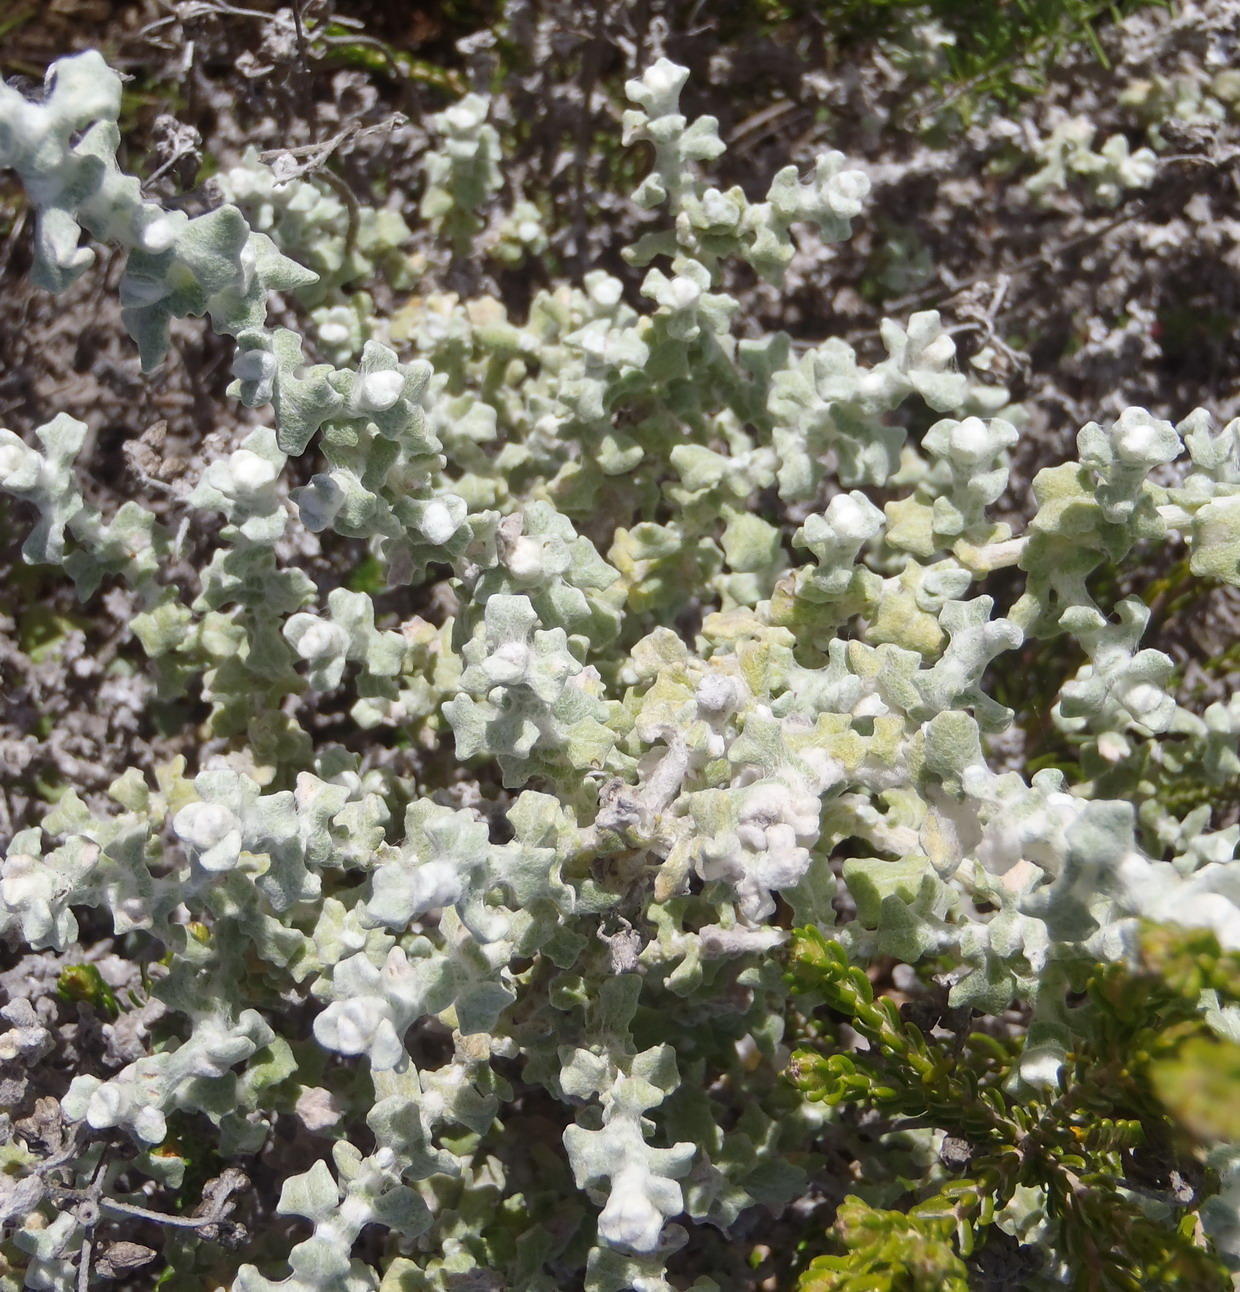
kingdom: Plantae
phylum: Tracheophyta
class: Magnoliopsida
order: Asterales
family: Asteraceae
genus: Helichrysum
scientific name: Helichrysum patulum
